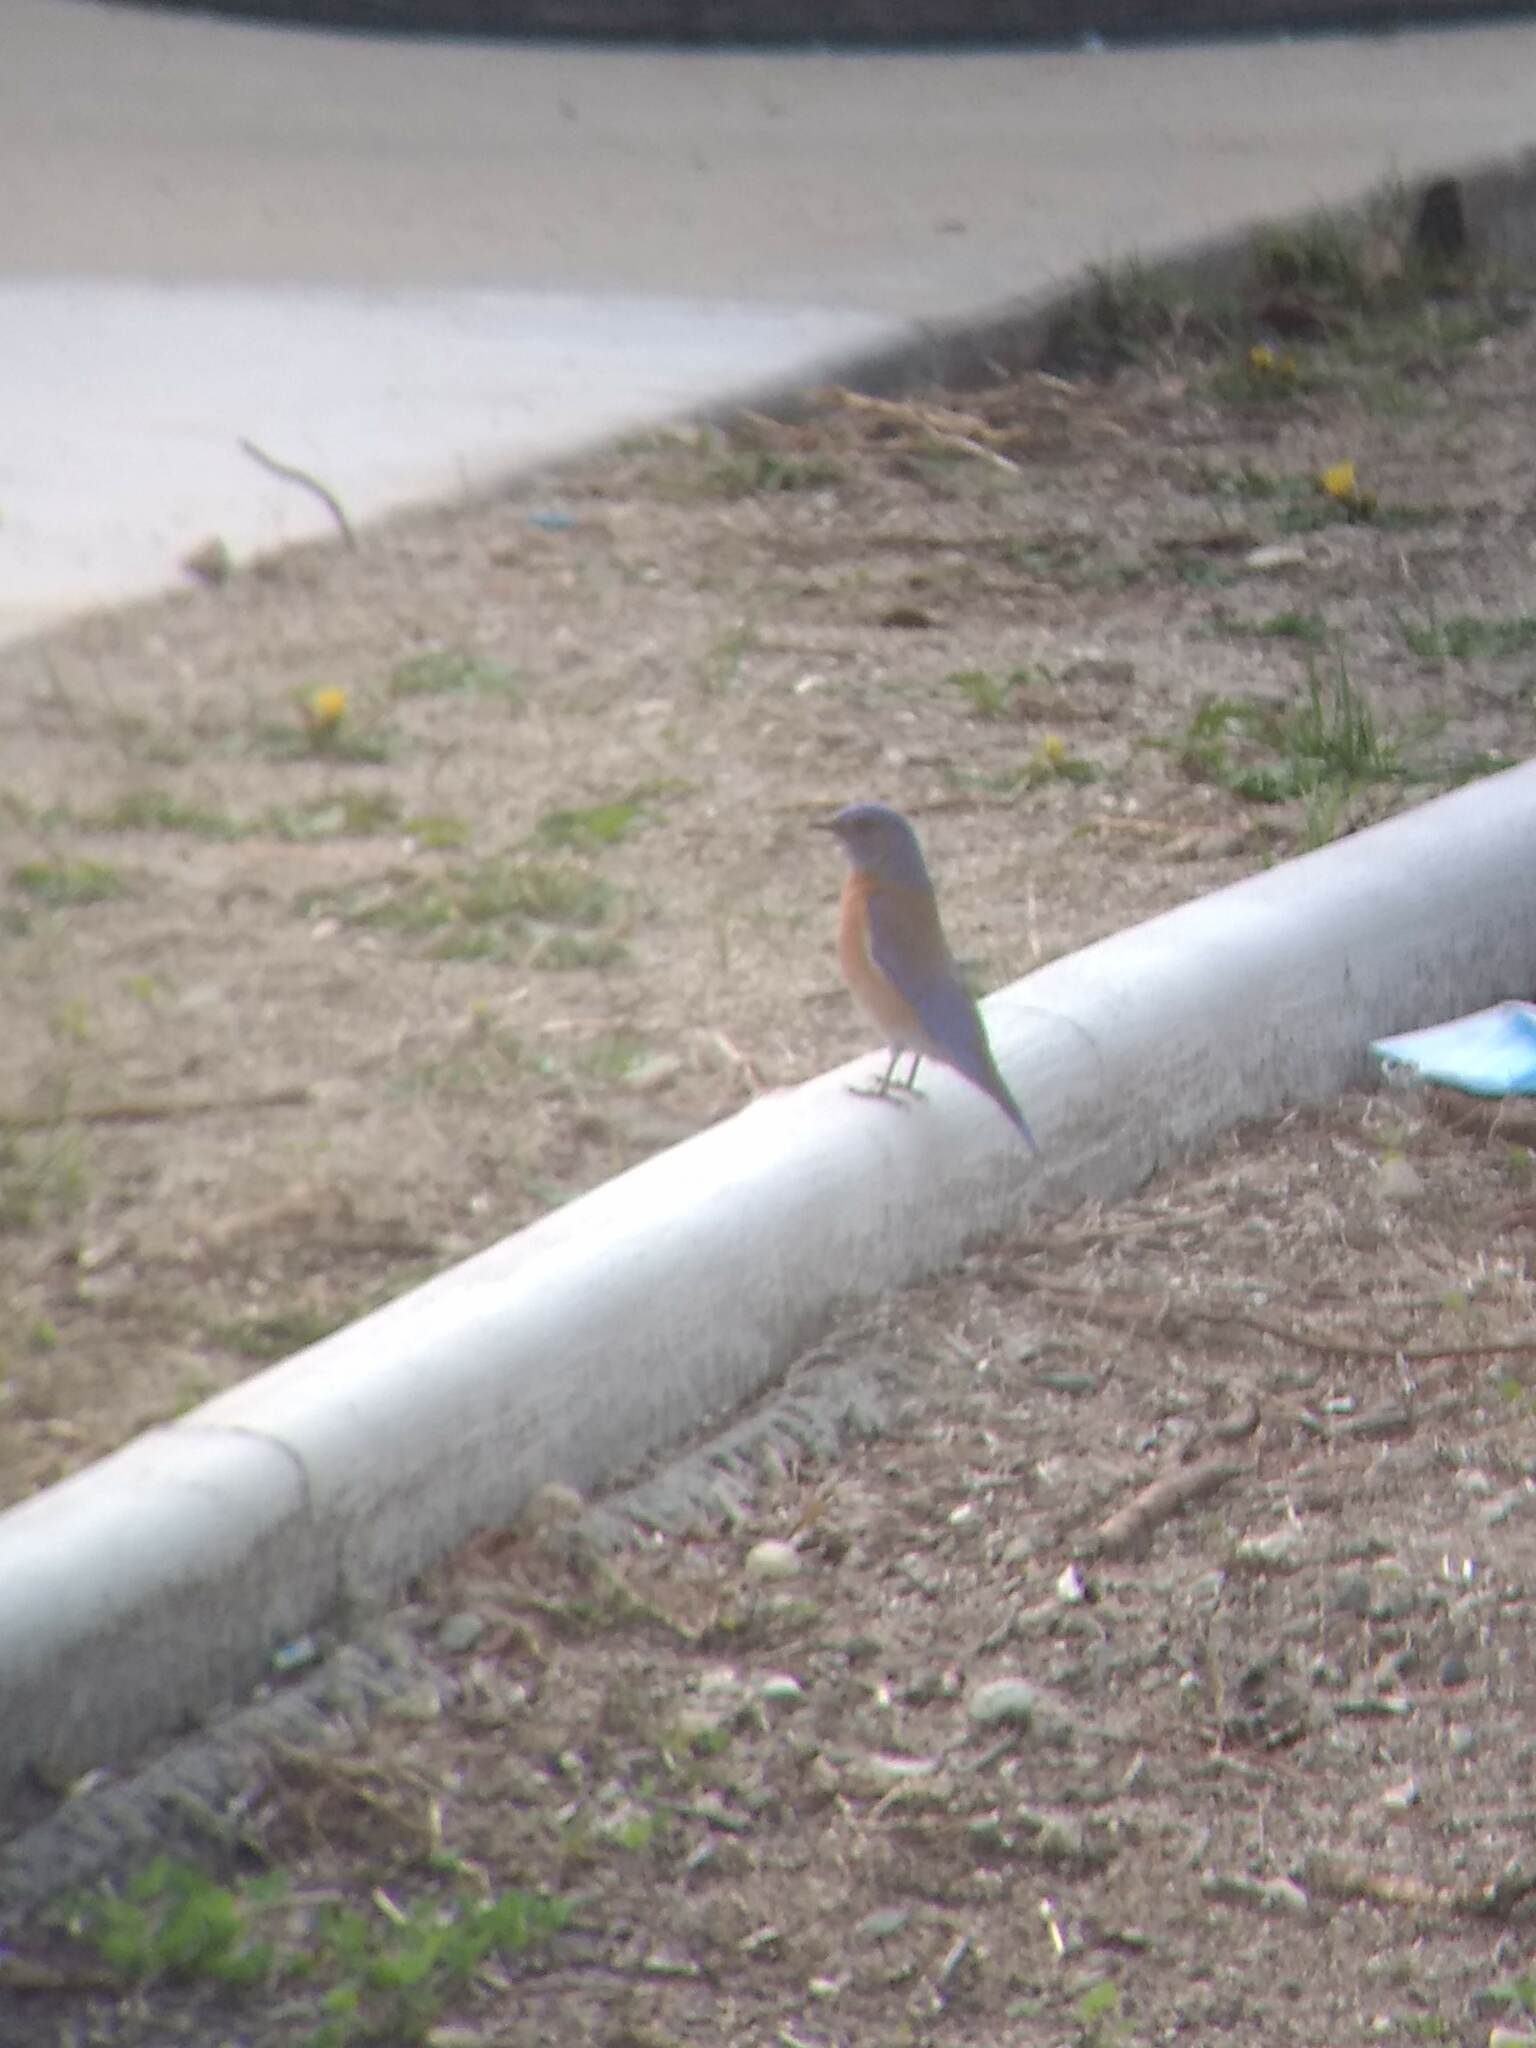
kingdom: Animalia
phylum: Chordata
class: Aves
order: Passeriformes
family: Turdidae
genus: Sialia
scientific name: Sialia mexicana
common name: Western bluebird
